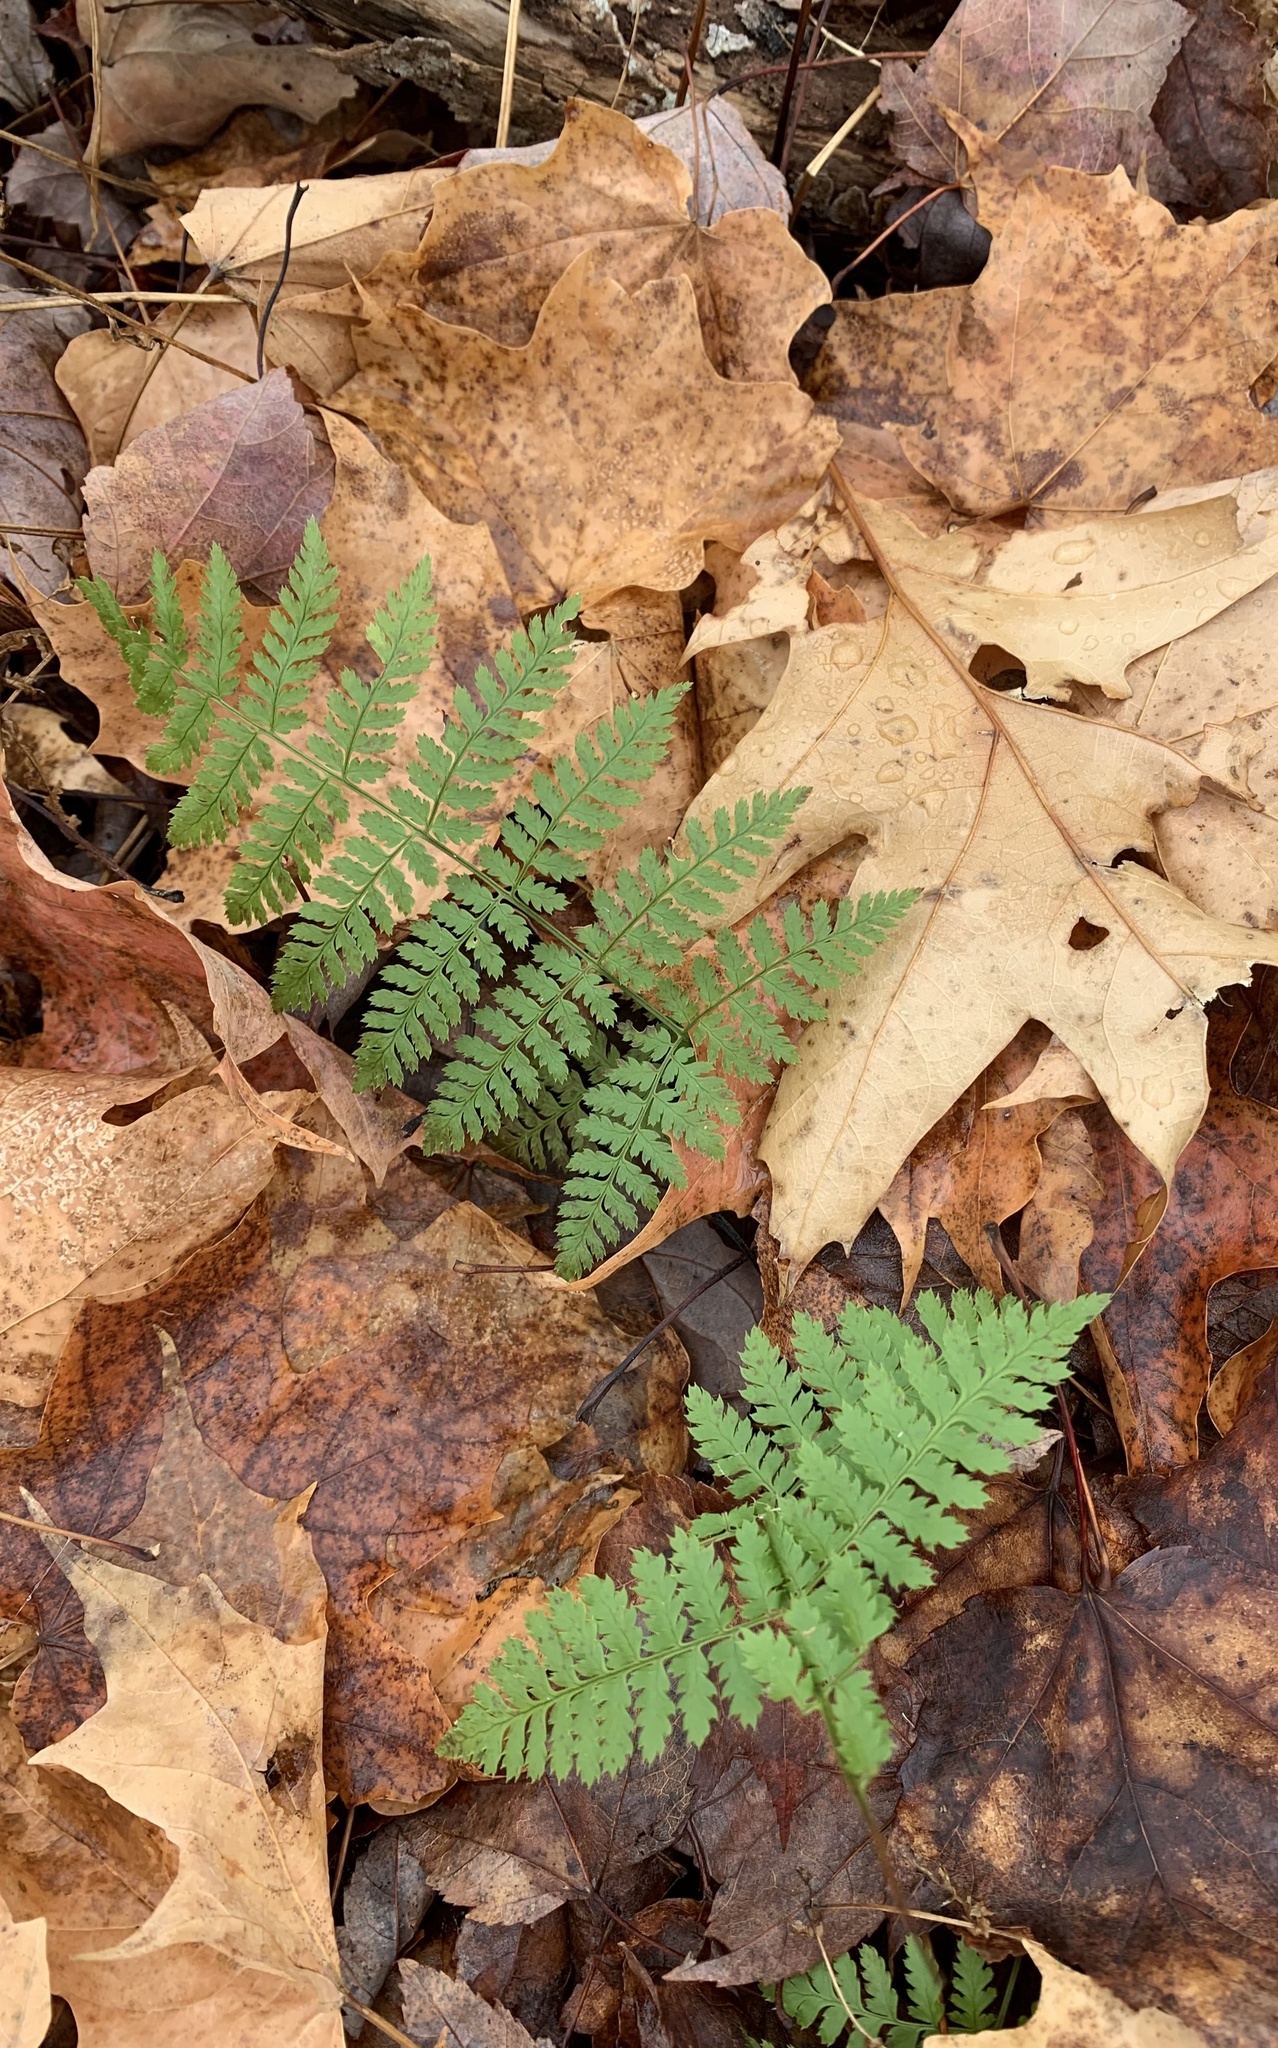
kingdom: Plantae
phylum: Tracheophyta
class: Polypodiopsida
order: Polypodiales
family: Dryopteridaceae
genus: Dryopteris
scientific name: Dryopteris intermedia
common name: Evergreen wood fern
